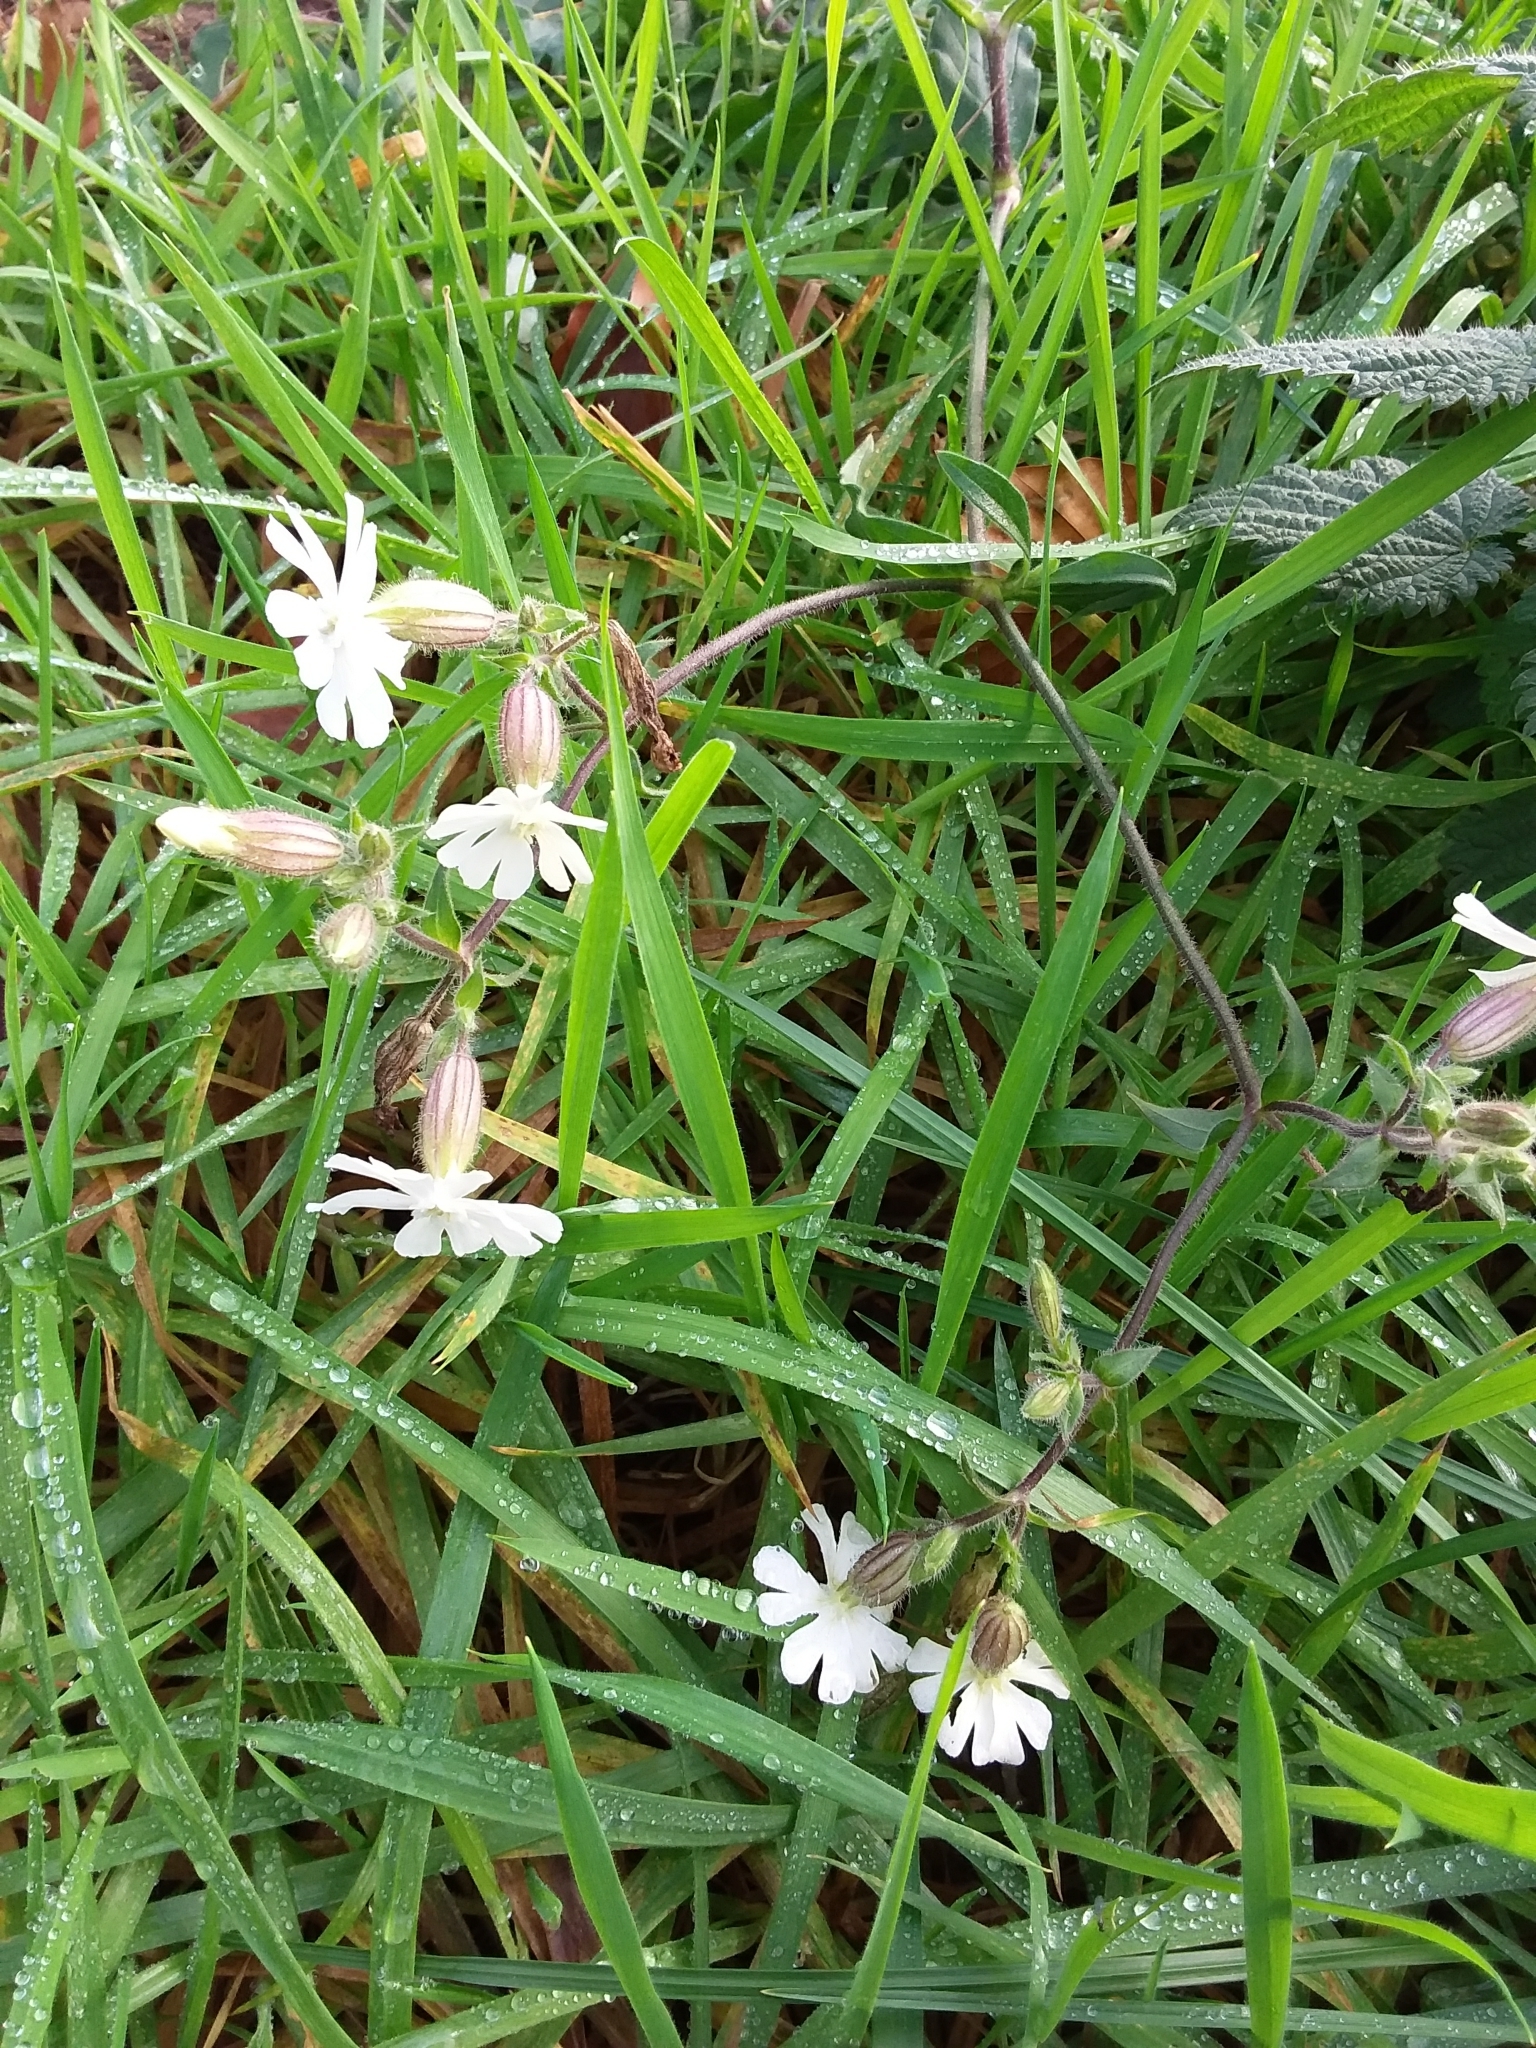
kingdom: Plantae
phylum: Tracheophyta
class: Magnoliopsida
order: Caryophyllales
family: Caryophyllaceae
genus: Silene
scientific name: Silene latifolia
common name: White campion
